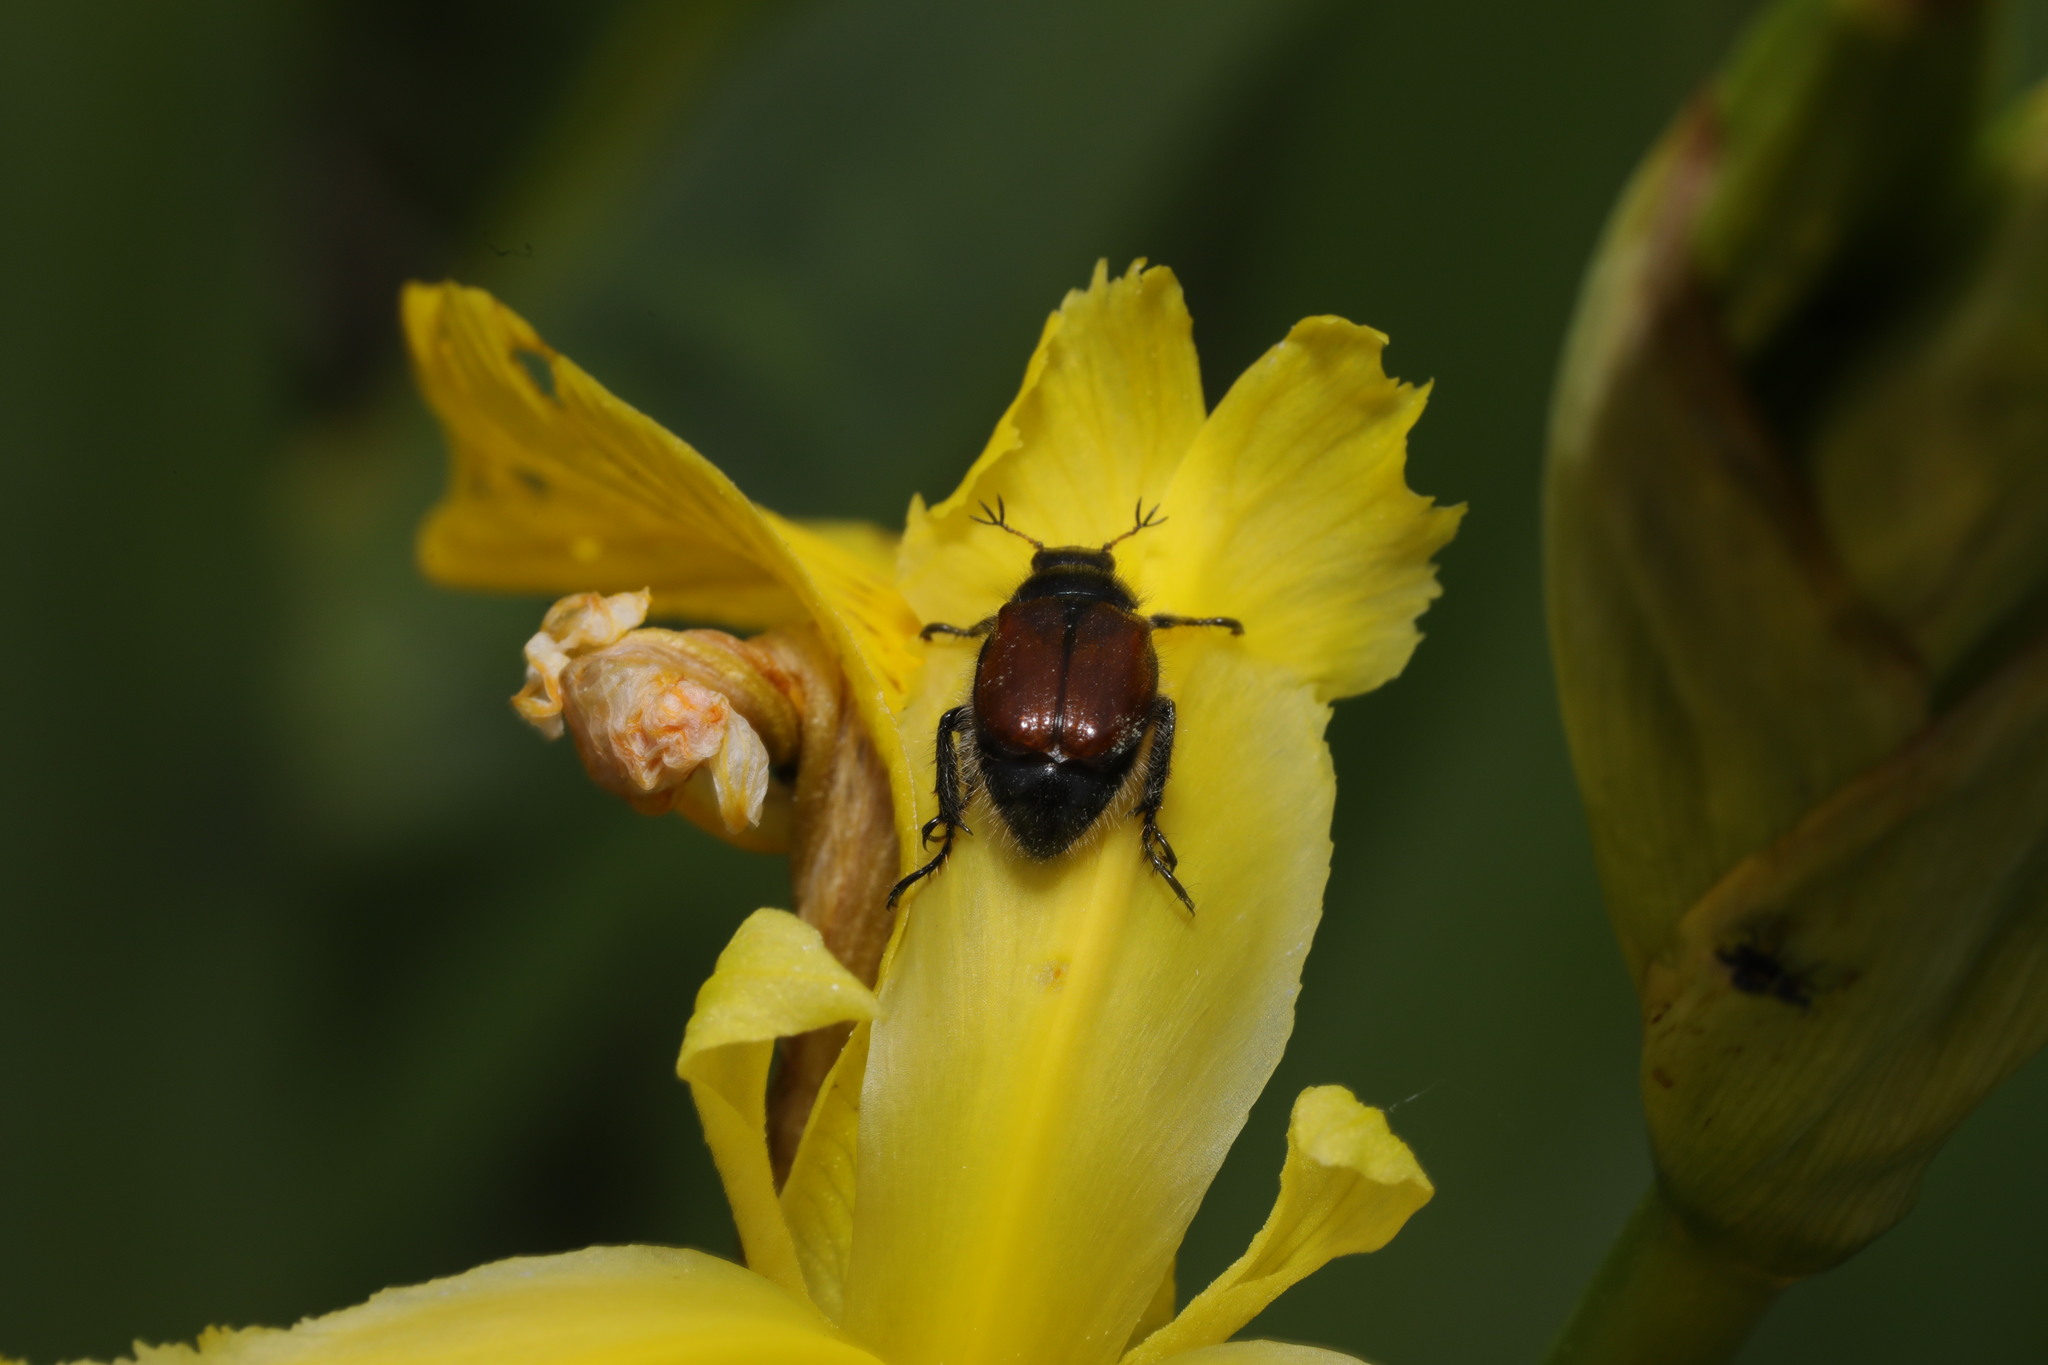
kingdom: Animalia
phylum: Arthropoda
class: Insecta
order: Coleoptera
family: Scarabaeidae
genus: Phyllopertha
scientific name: Phyllopertha horticola
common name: Garden chafer
